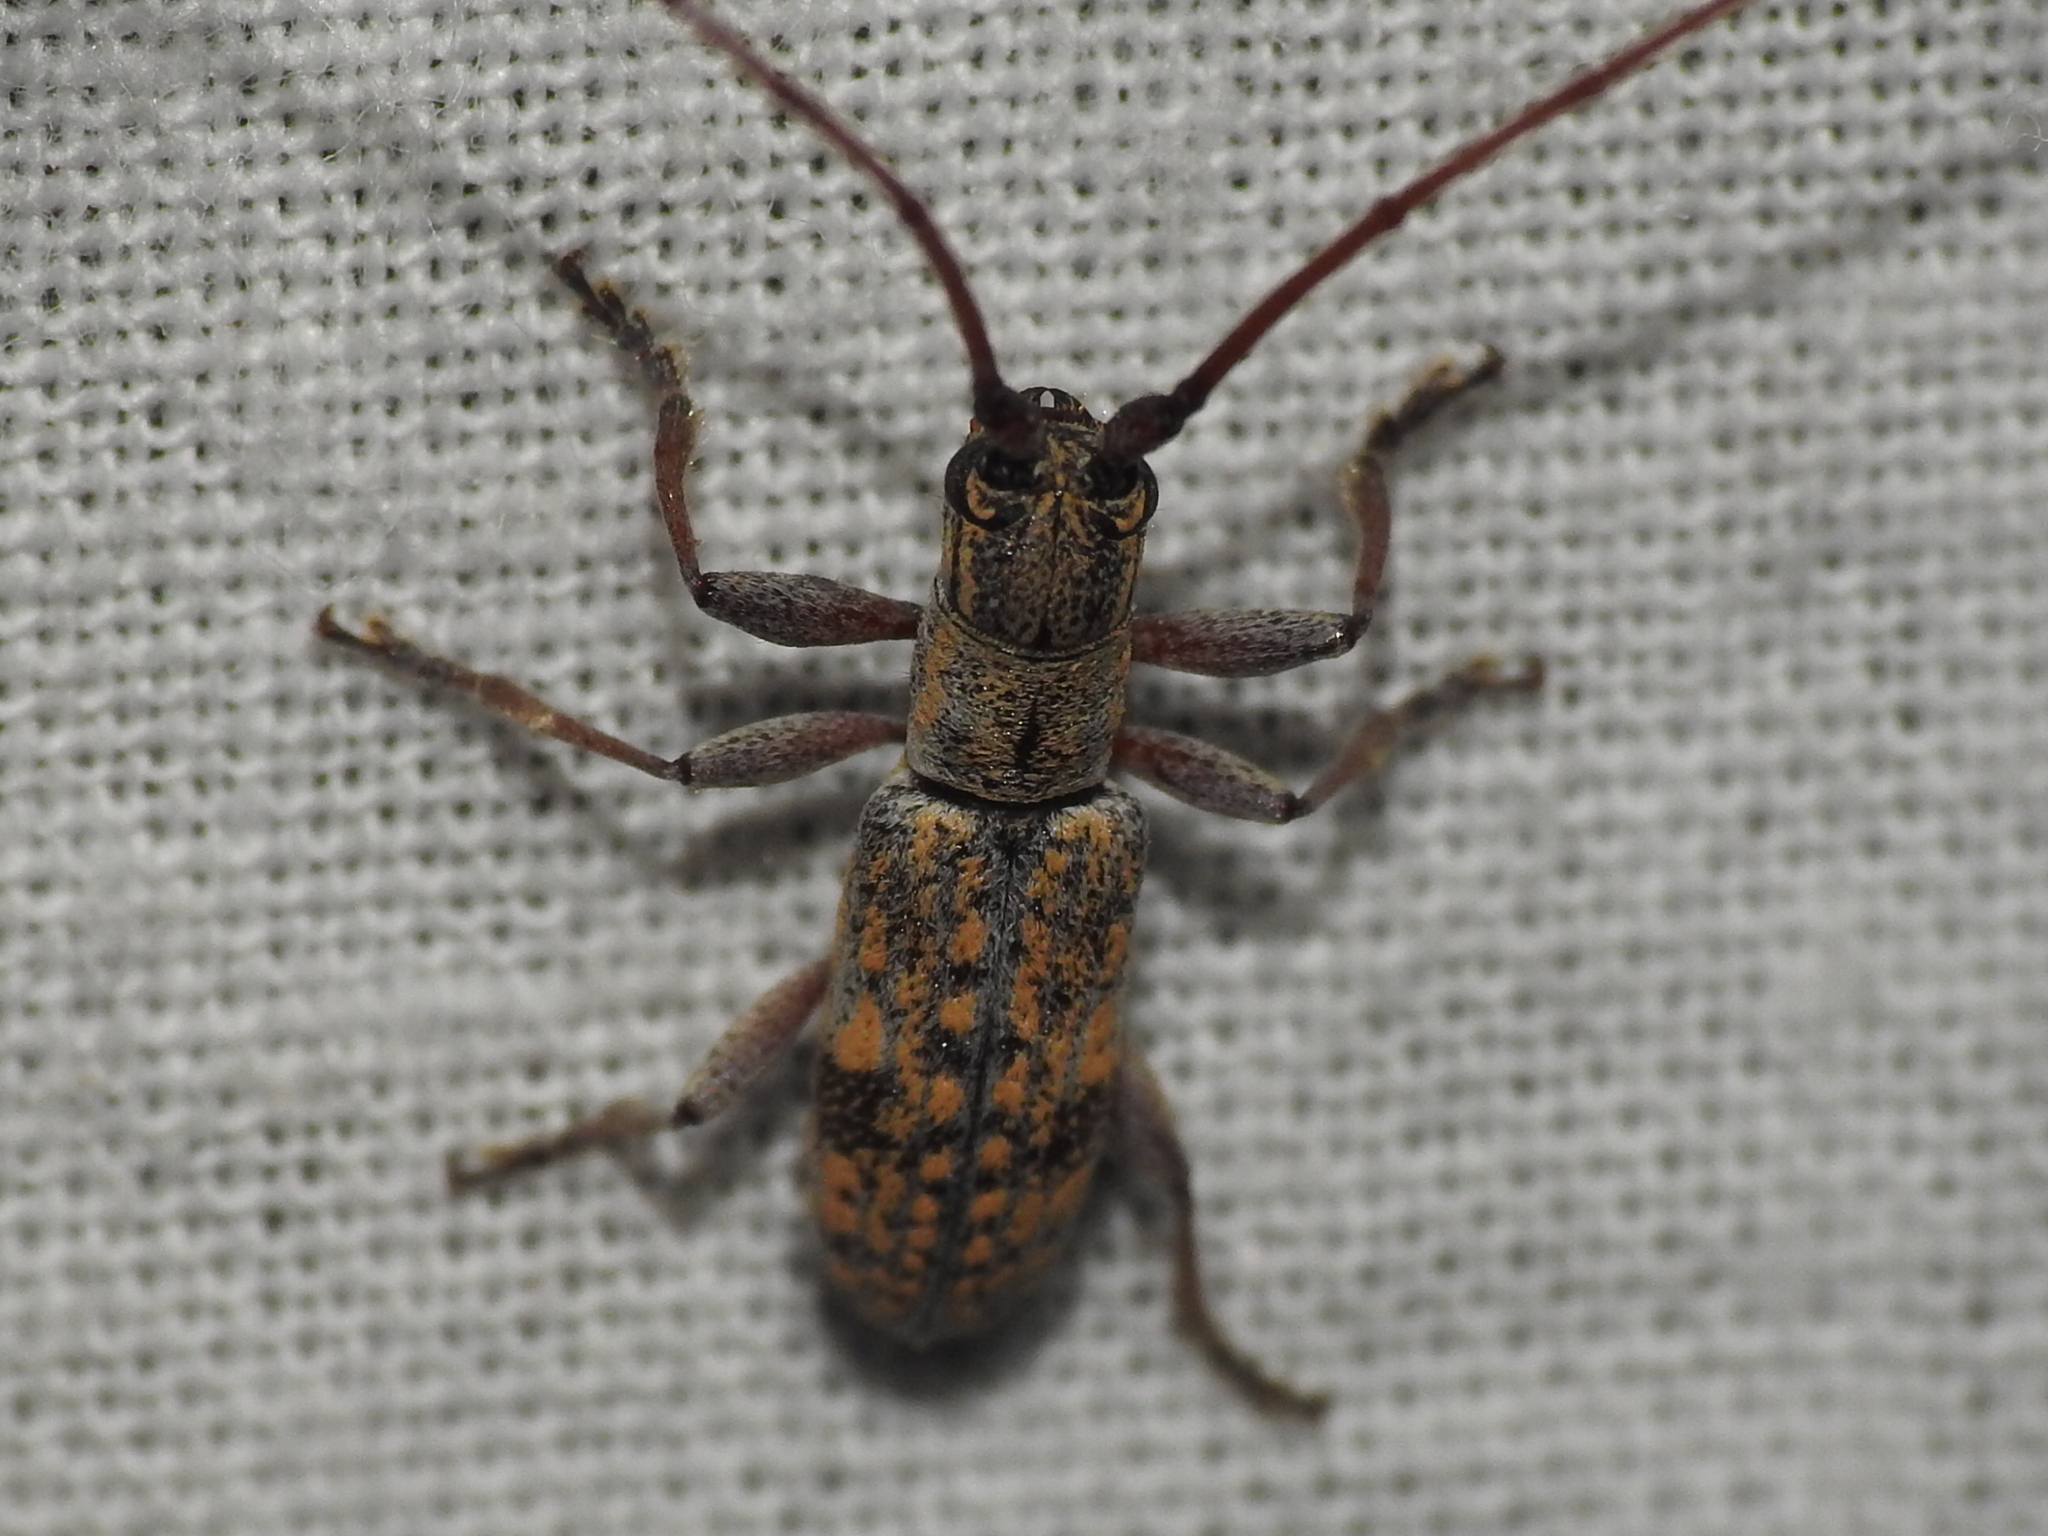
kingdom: Animalia
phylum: Arthropoda
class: Insecta
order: Coleoptera
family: Cerambycidae
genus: Dorcaschema
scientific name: Dorcaschema alternatum
